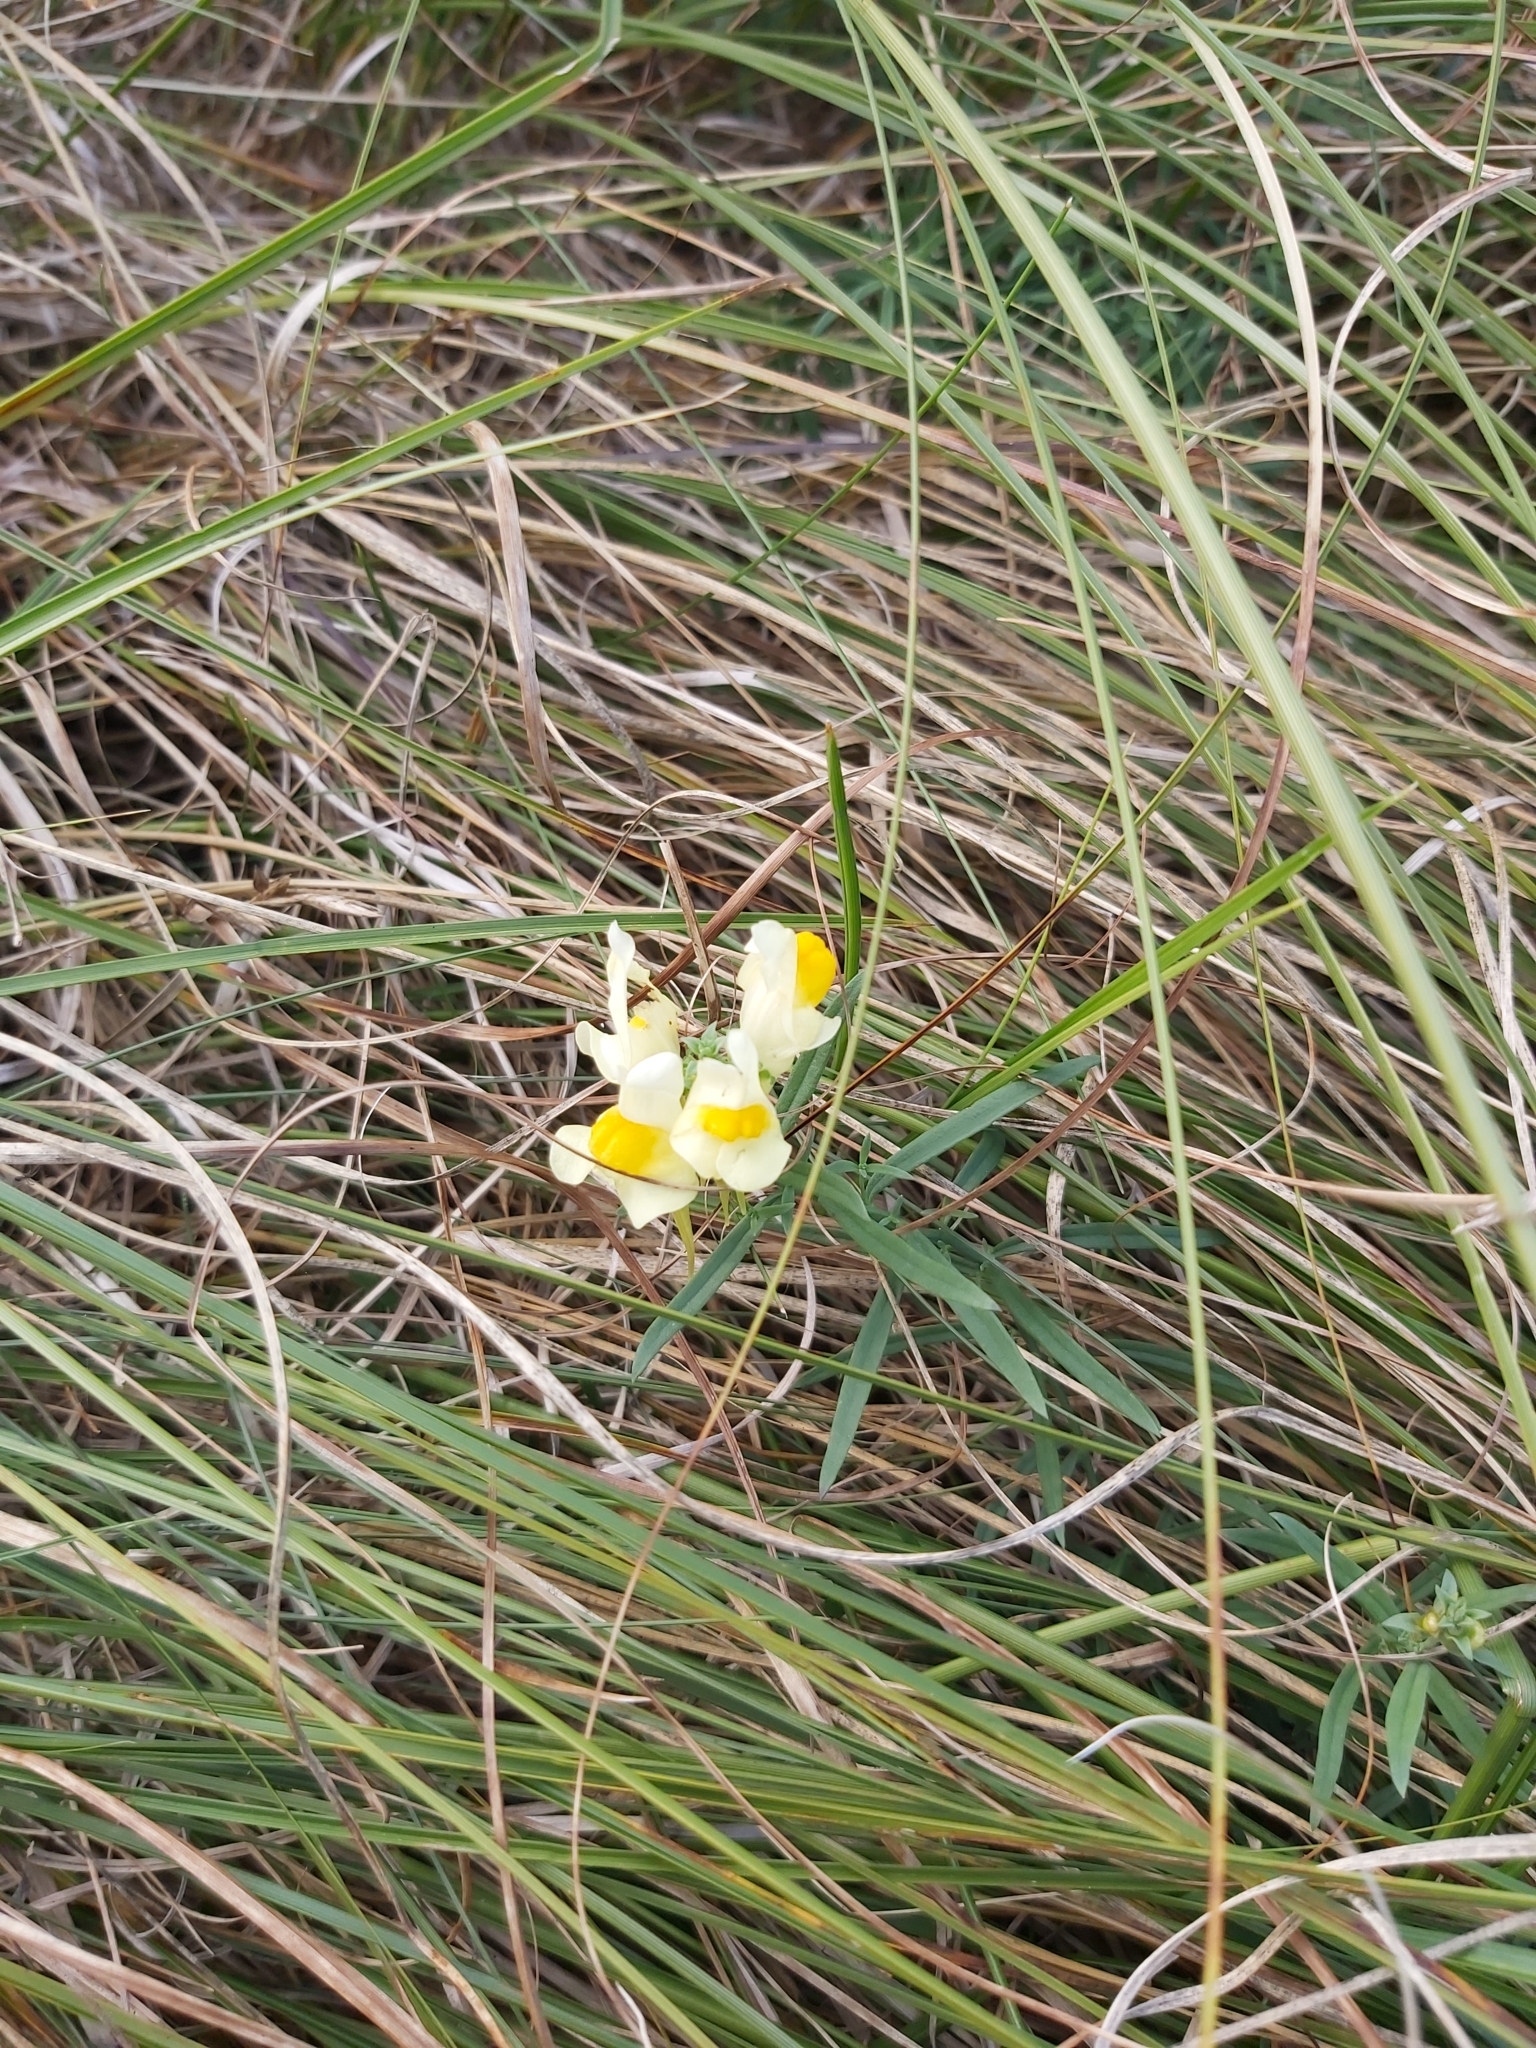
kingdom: Plantae
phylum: Tracheophyta
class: Magnoliopsida
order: Lamiales
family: Plantaginaceae
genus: Linaria
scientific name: Linaria vulgaris
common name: Butter and eggs
